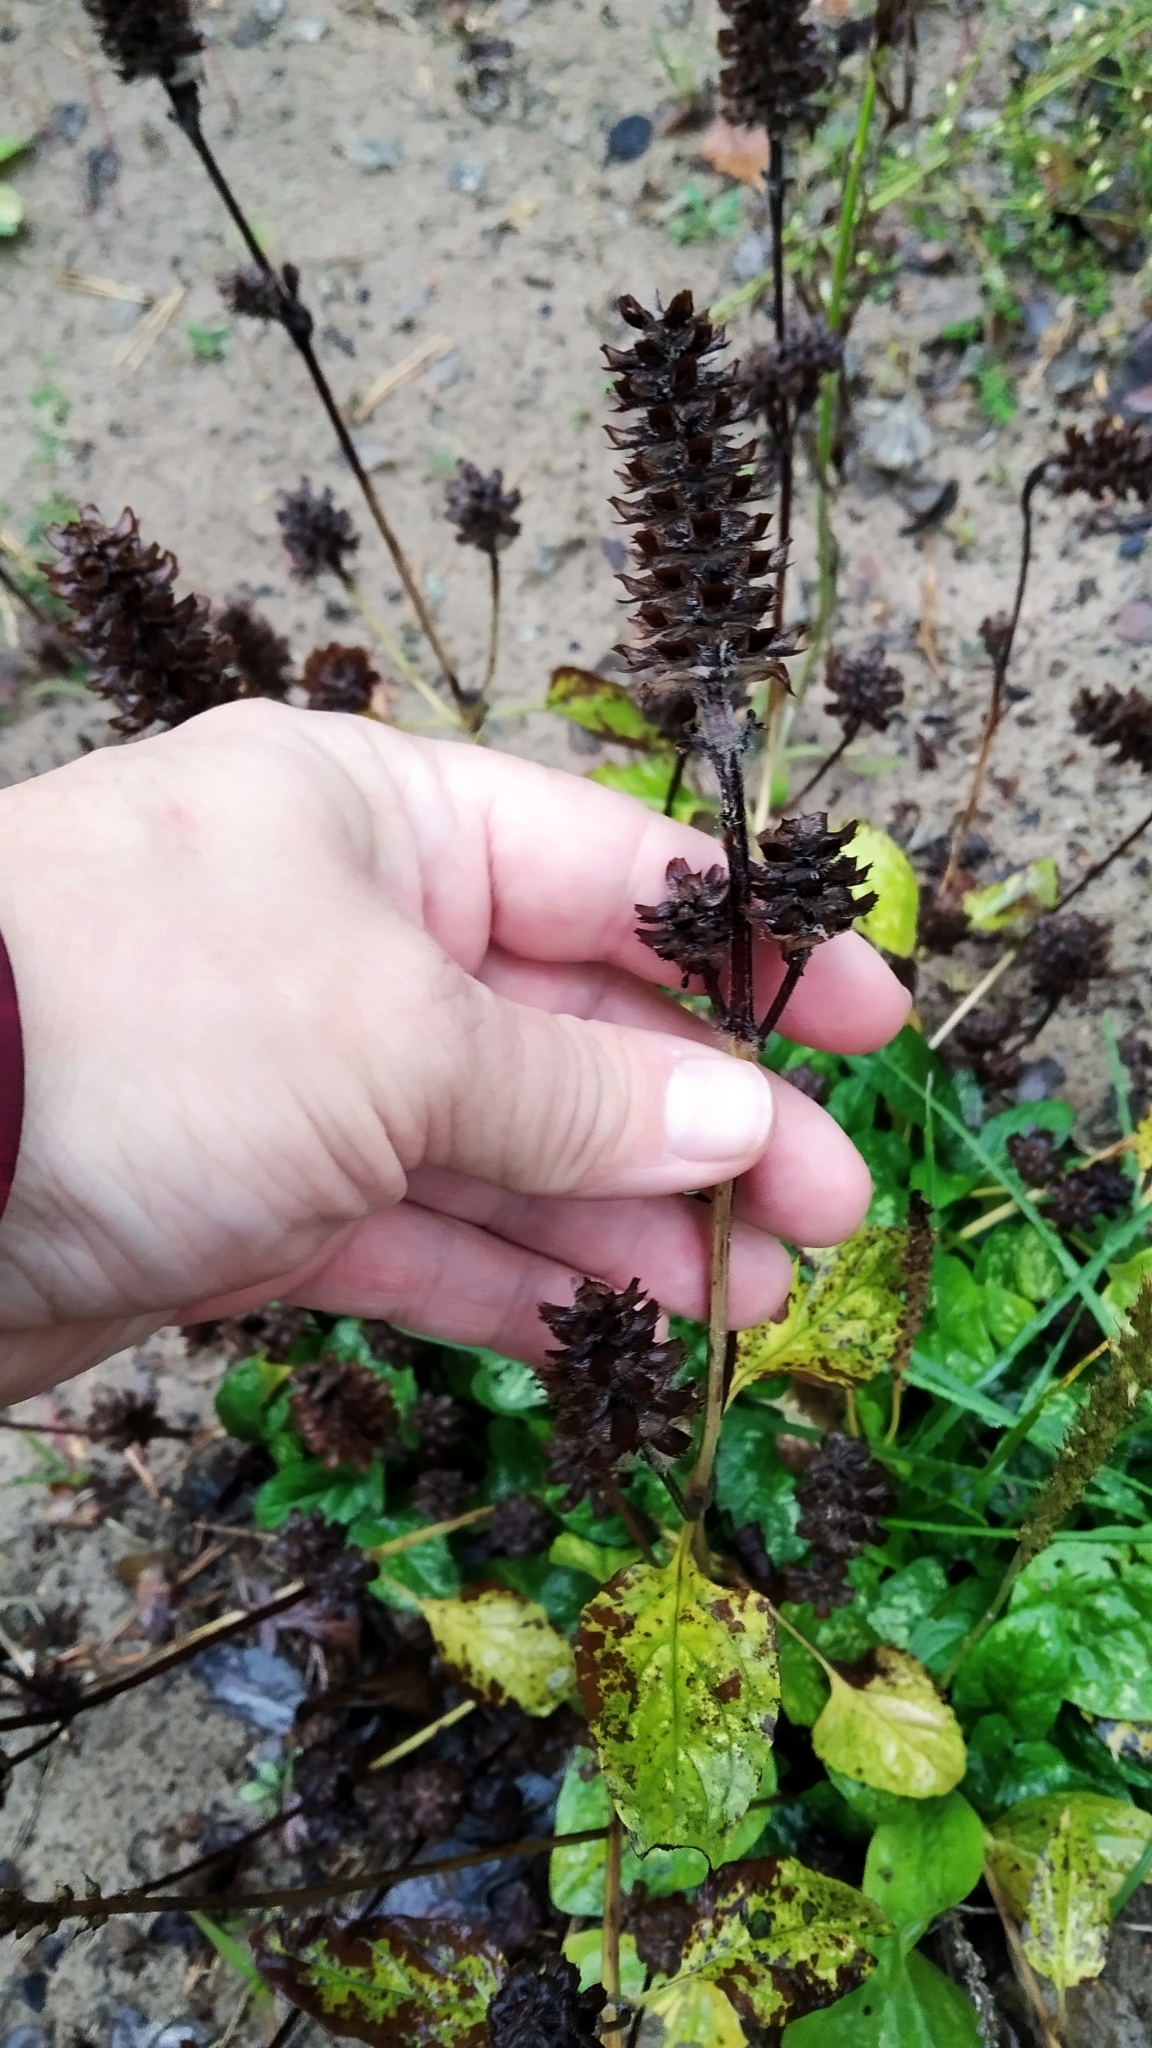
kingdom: Plantae
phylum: Tracheophyta
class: Magnoliopsida
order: Lamiales
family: Lamiaceae
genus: Prunella
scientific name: Prunella vulgaris
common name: Heal-all
